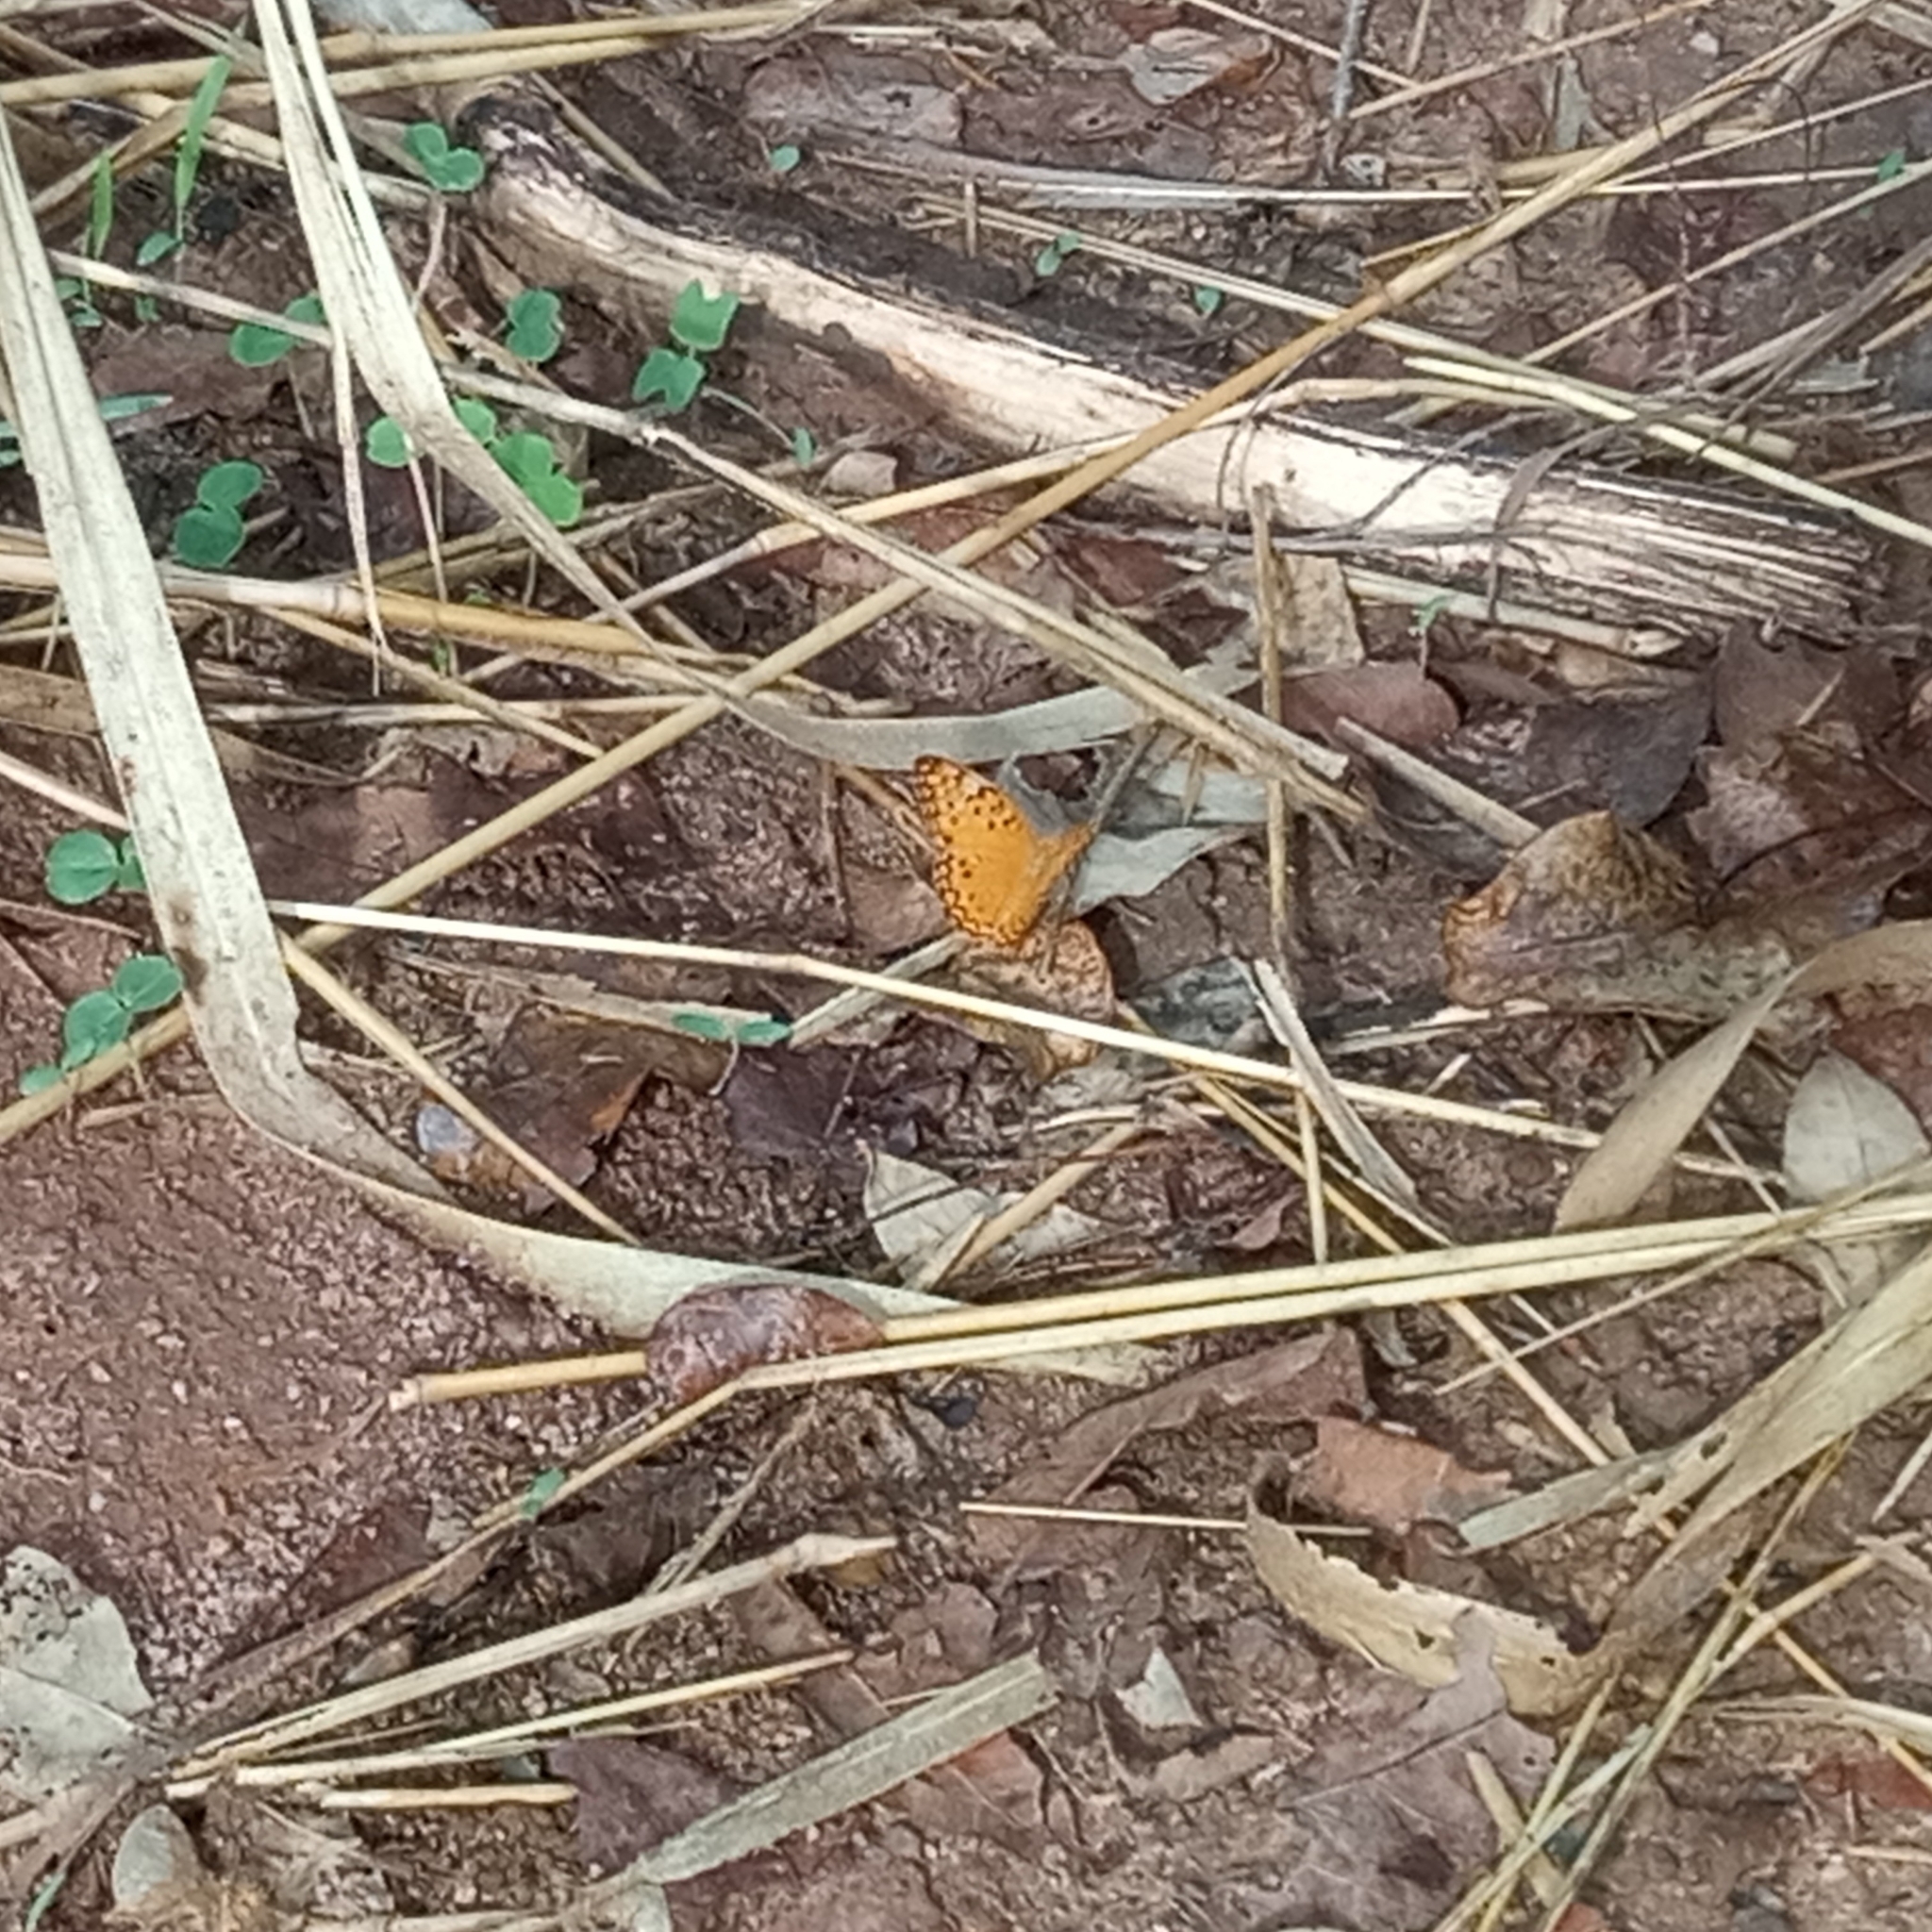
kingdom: Animalia
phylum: Arthropoda
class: Insecta
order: Lepidoptera
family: Nymphalidae
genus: Phalanta
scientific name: Phalanta phalantha
